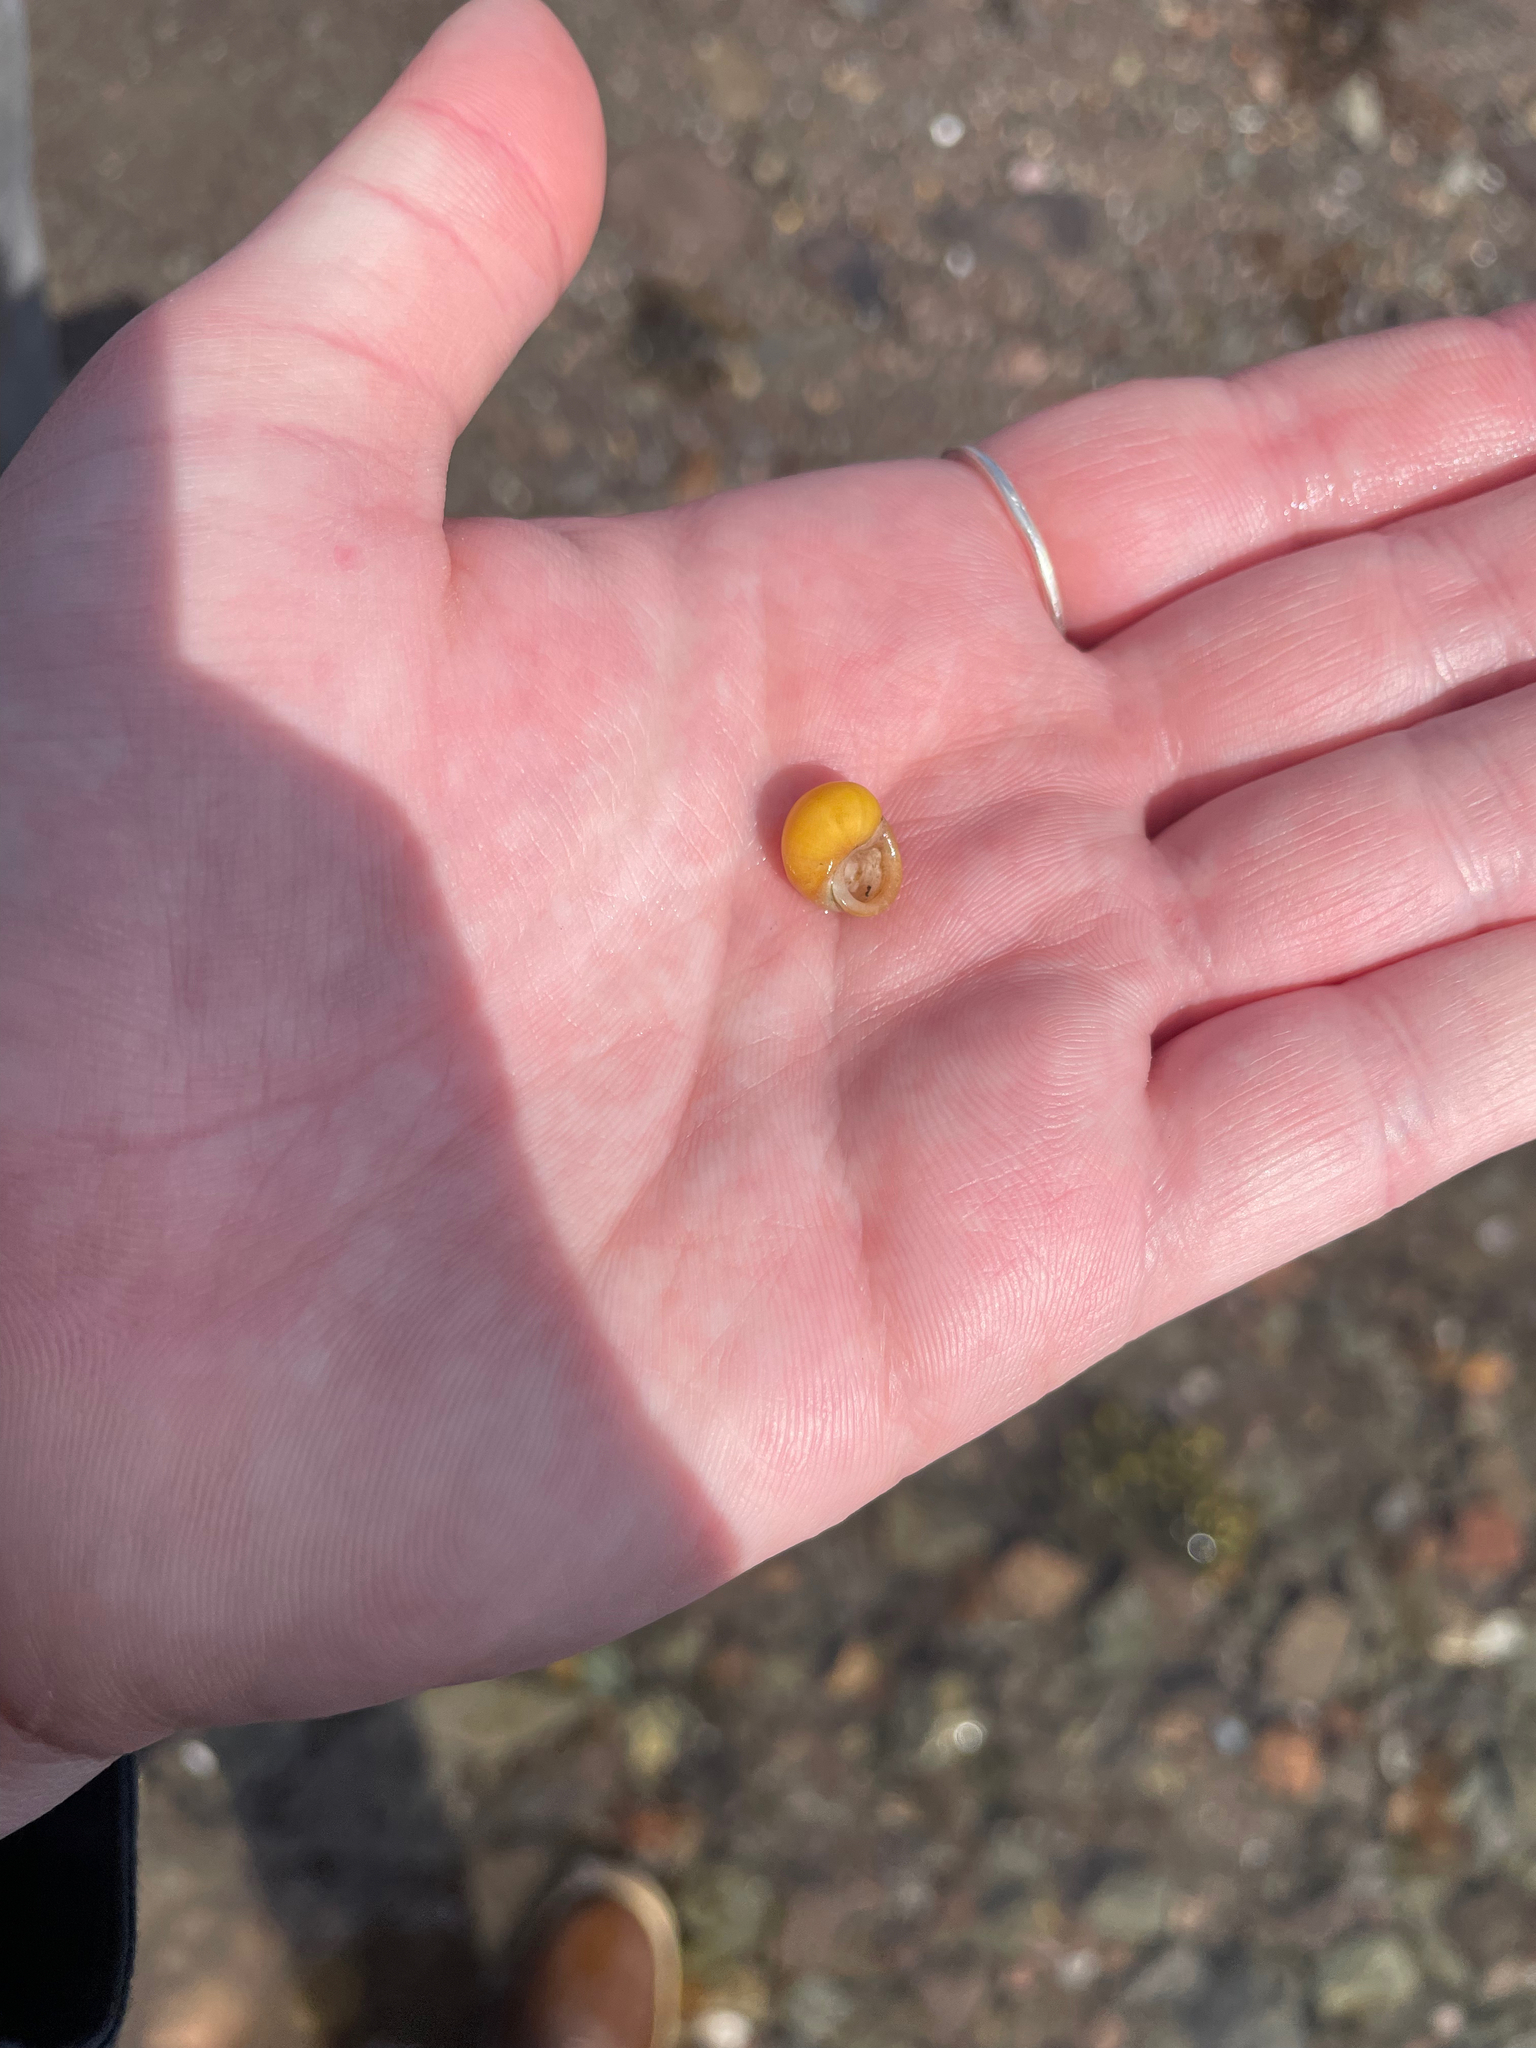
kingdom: Animalia
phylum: Mollusca
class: Gastropoda
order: Littorinimorpha
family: Littorinidae
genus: Littorina
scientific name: Littorina obtusata
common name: Flat periwinkle
